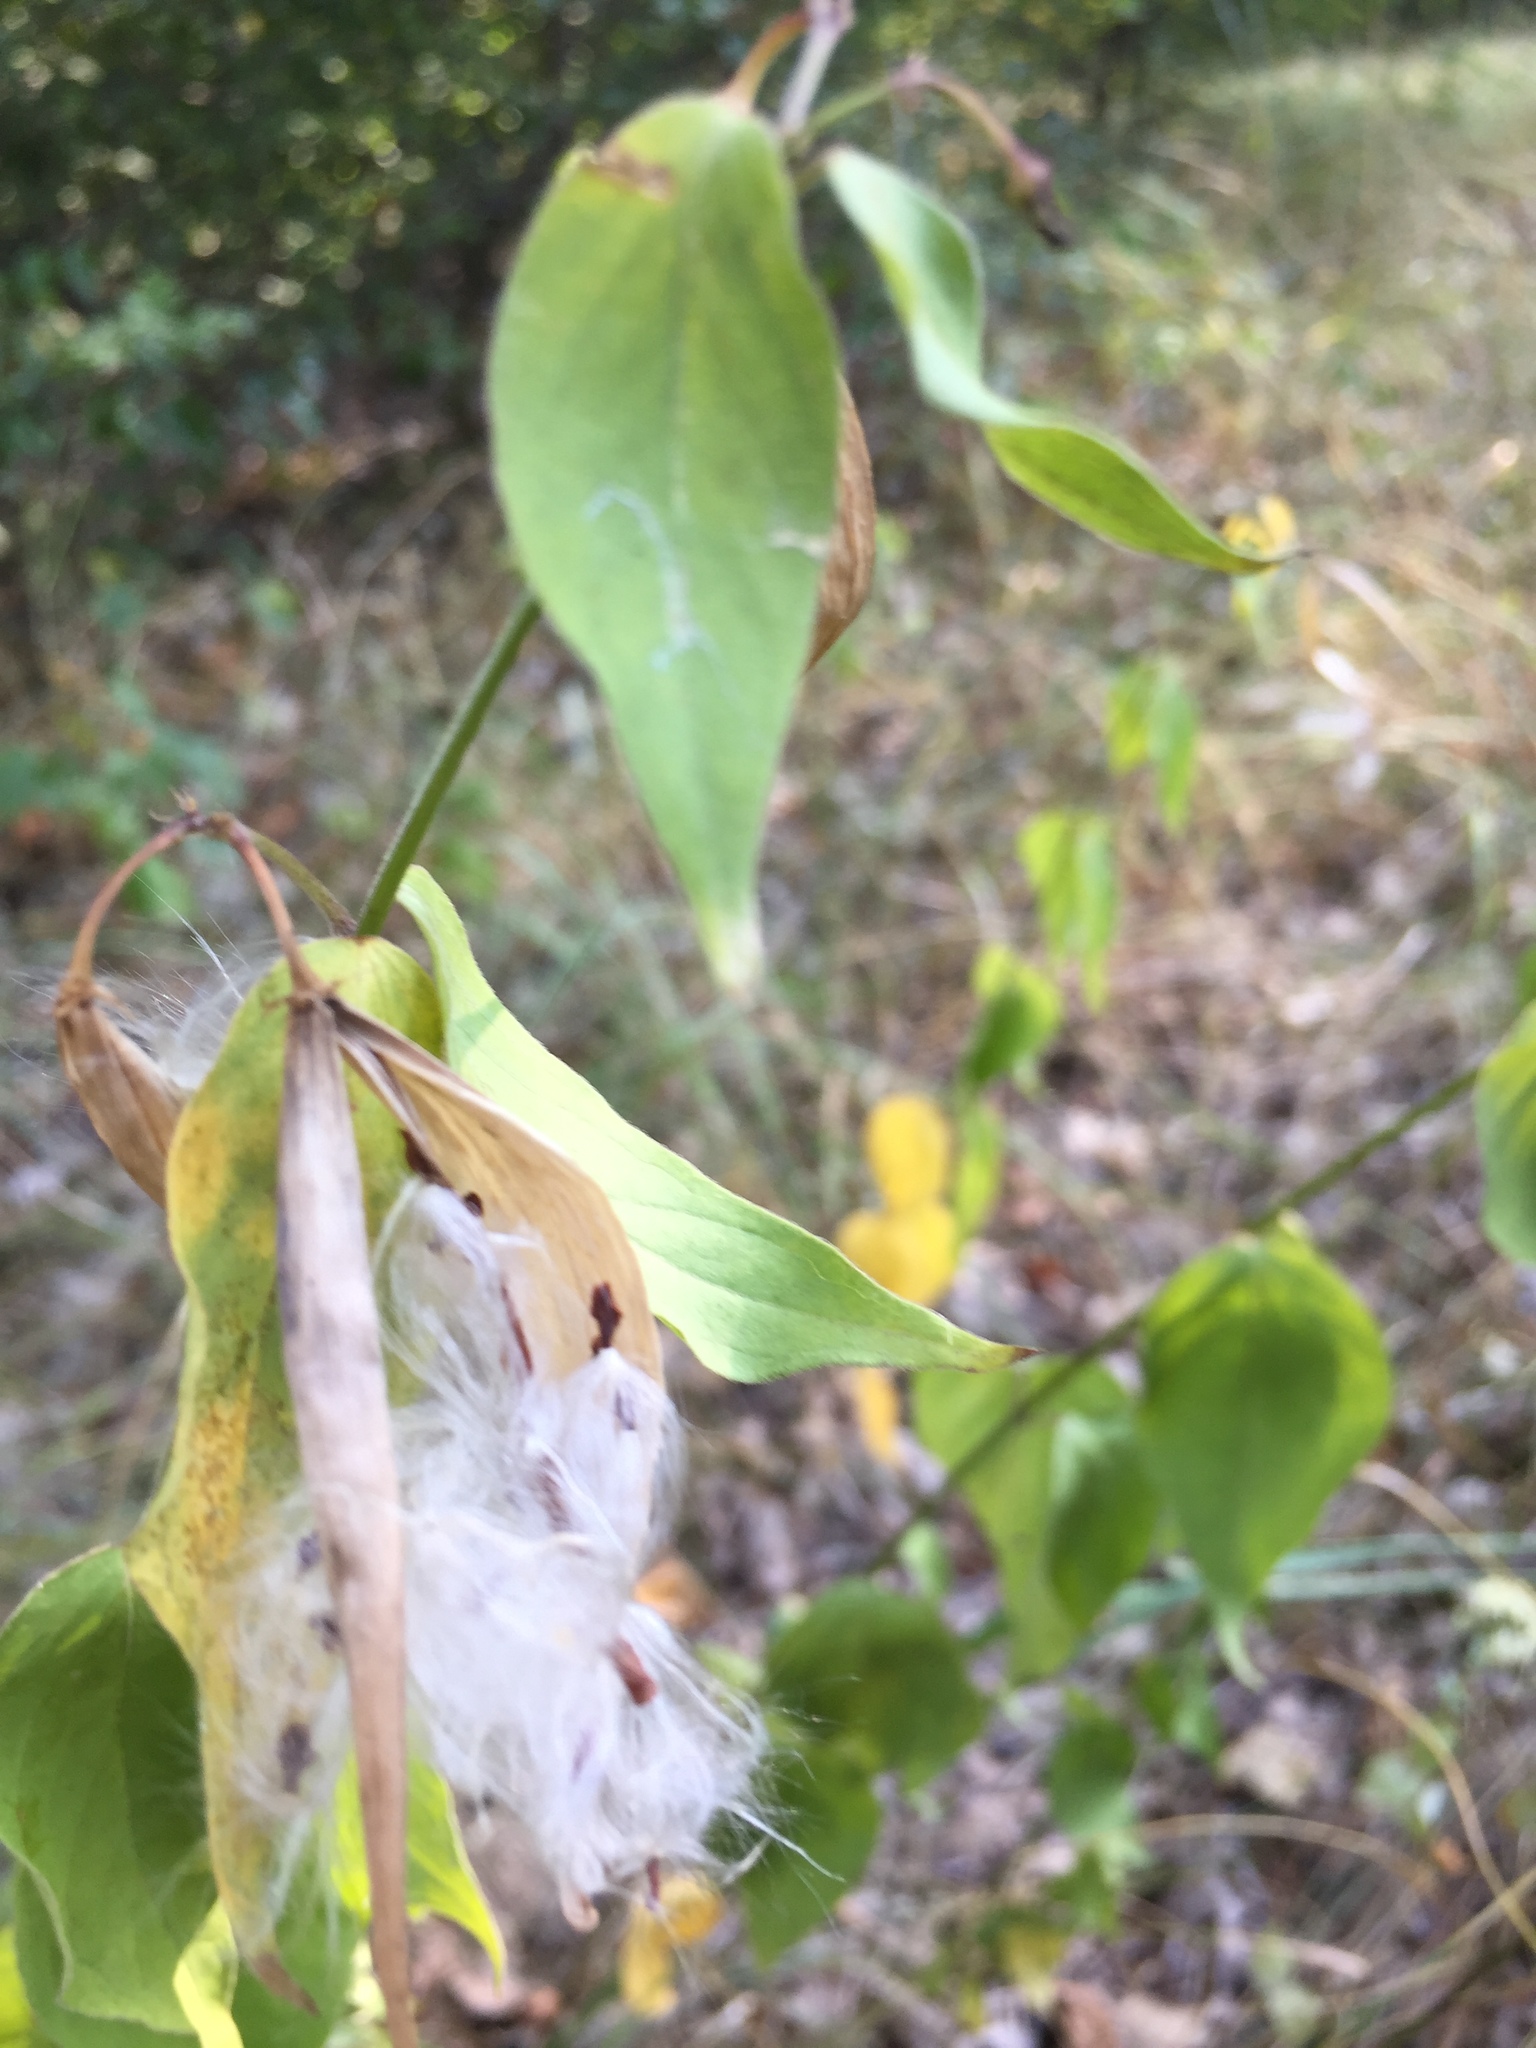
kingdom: Plantae
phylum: Tracheophyta
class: Magnoliopsida
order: Gentianales
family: Apocynaceae
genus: Vincetoxicum
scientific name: Vincetoxicum hirundinaria
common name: White swallowwort
